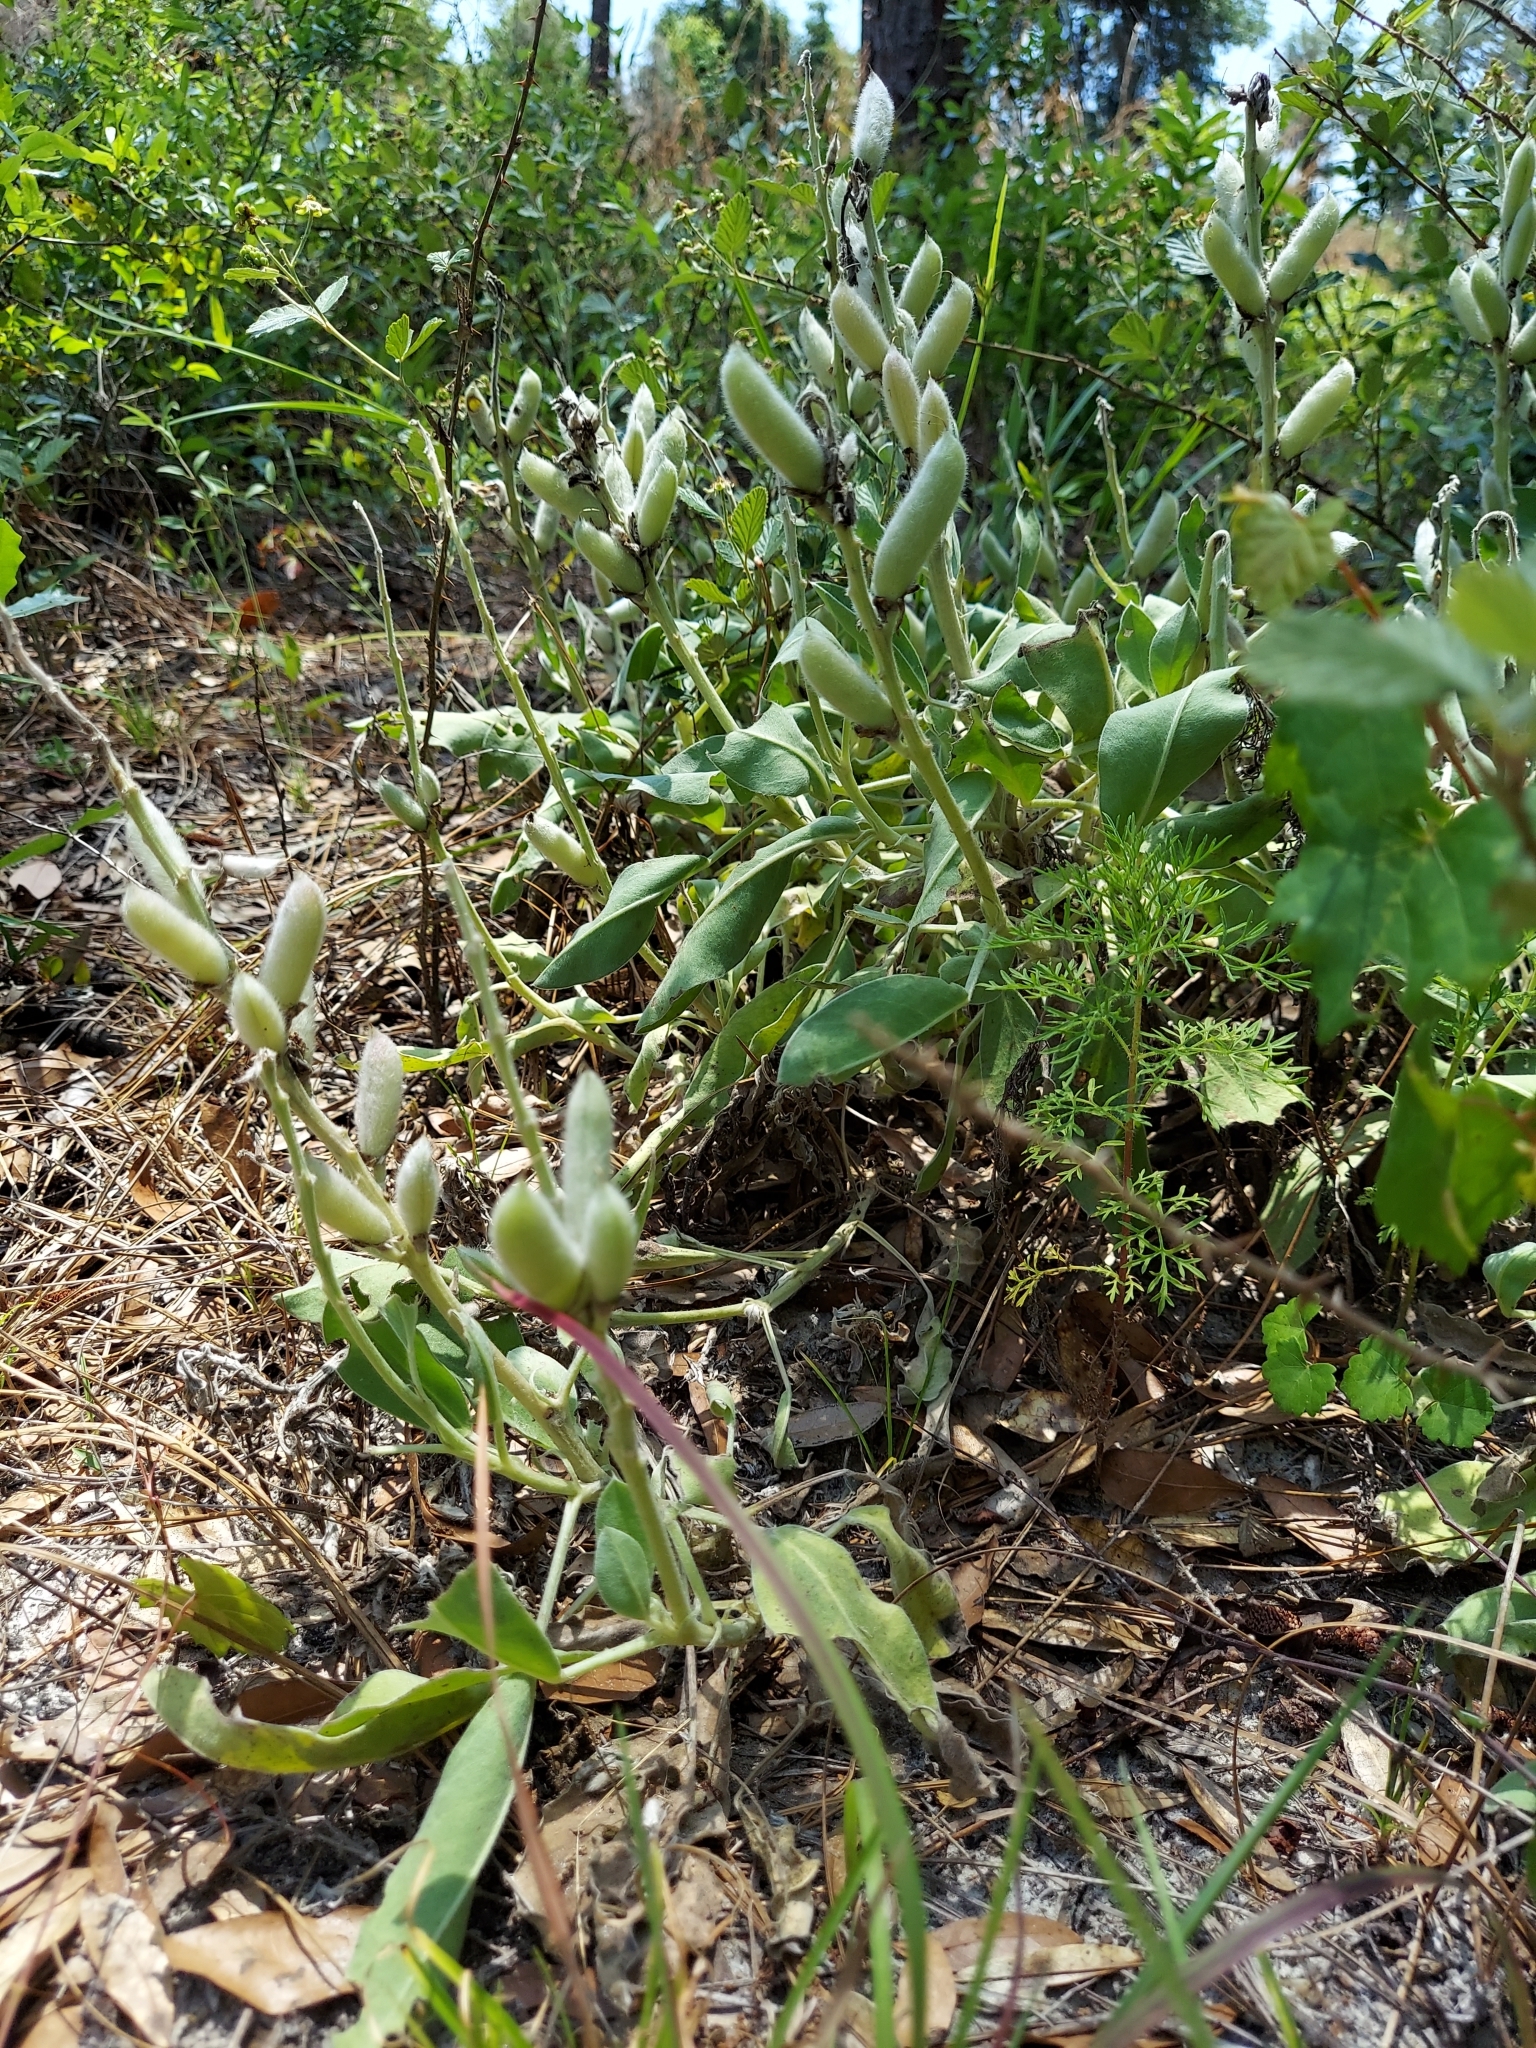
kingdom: Plantae
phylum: Tracheophyta
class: Magnoliopsida
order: Fabales
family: Fabaceae
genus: Lupinus
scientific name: Lupinus
